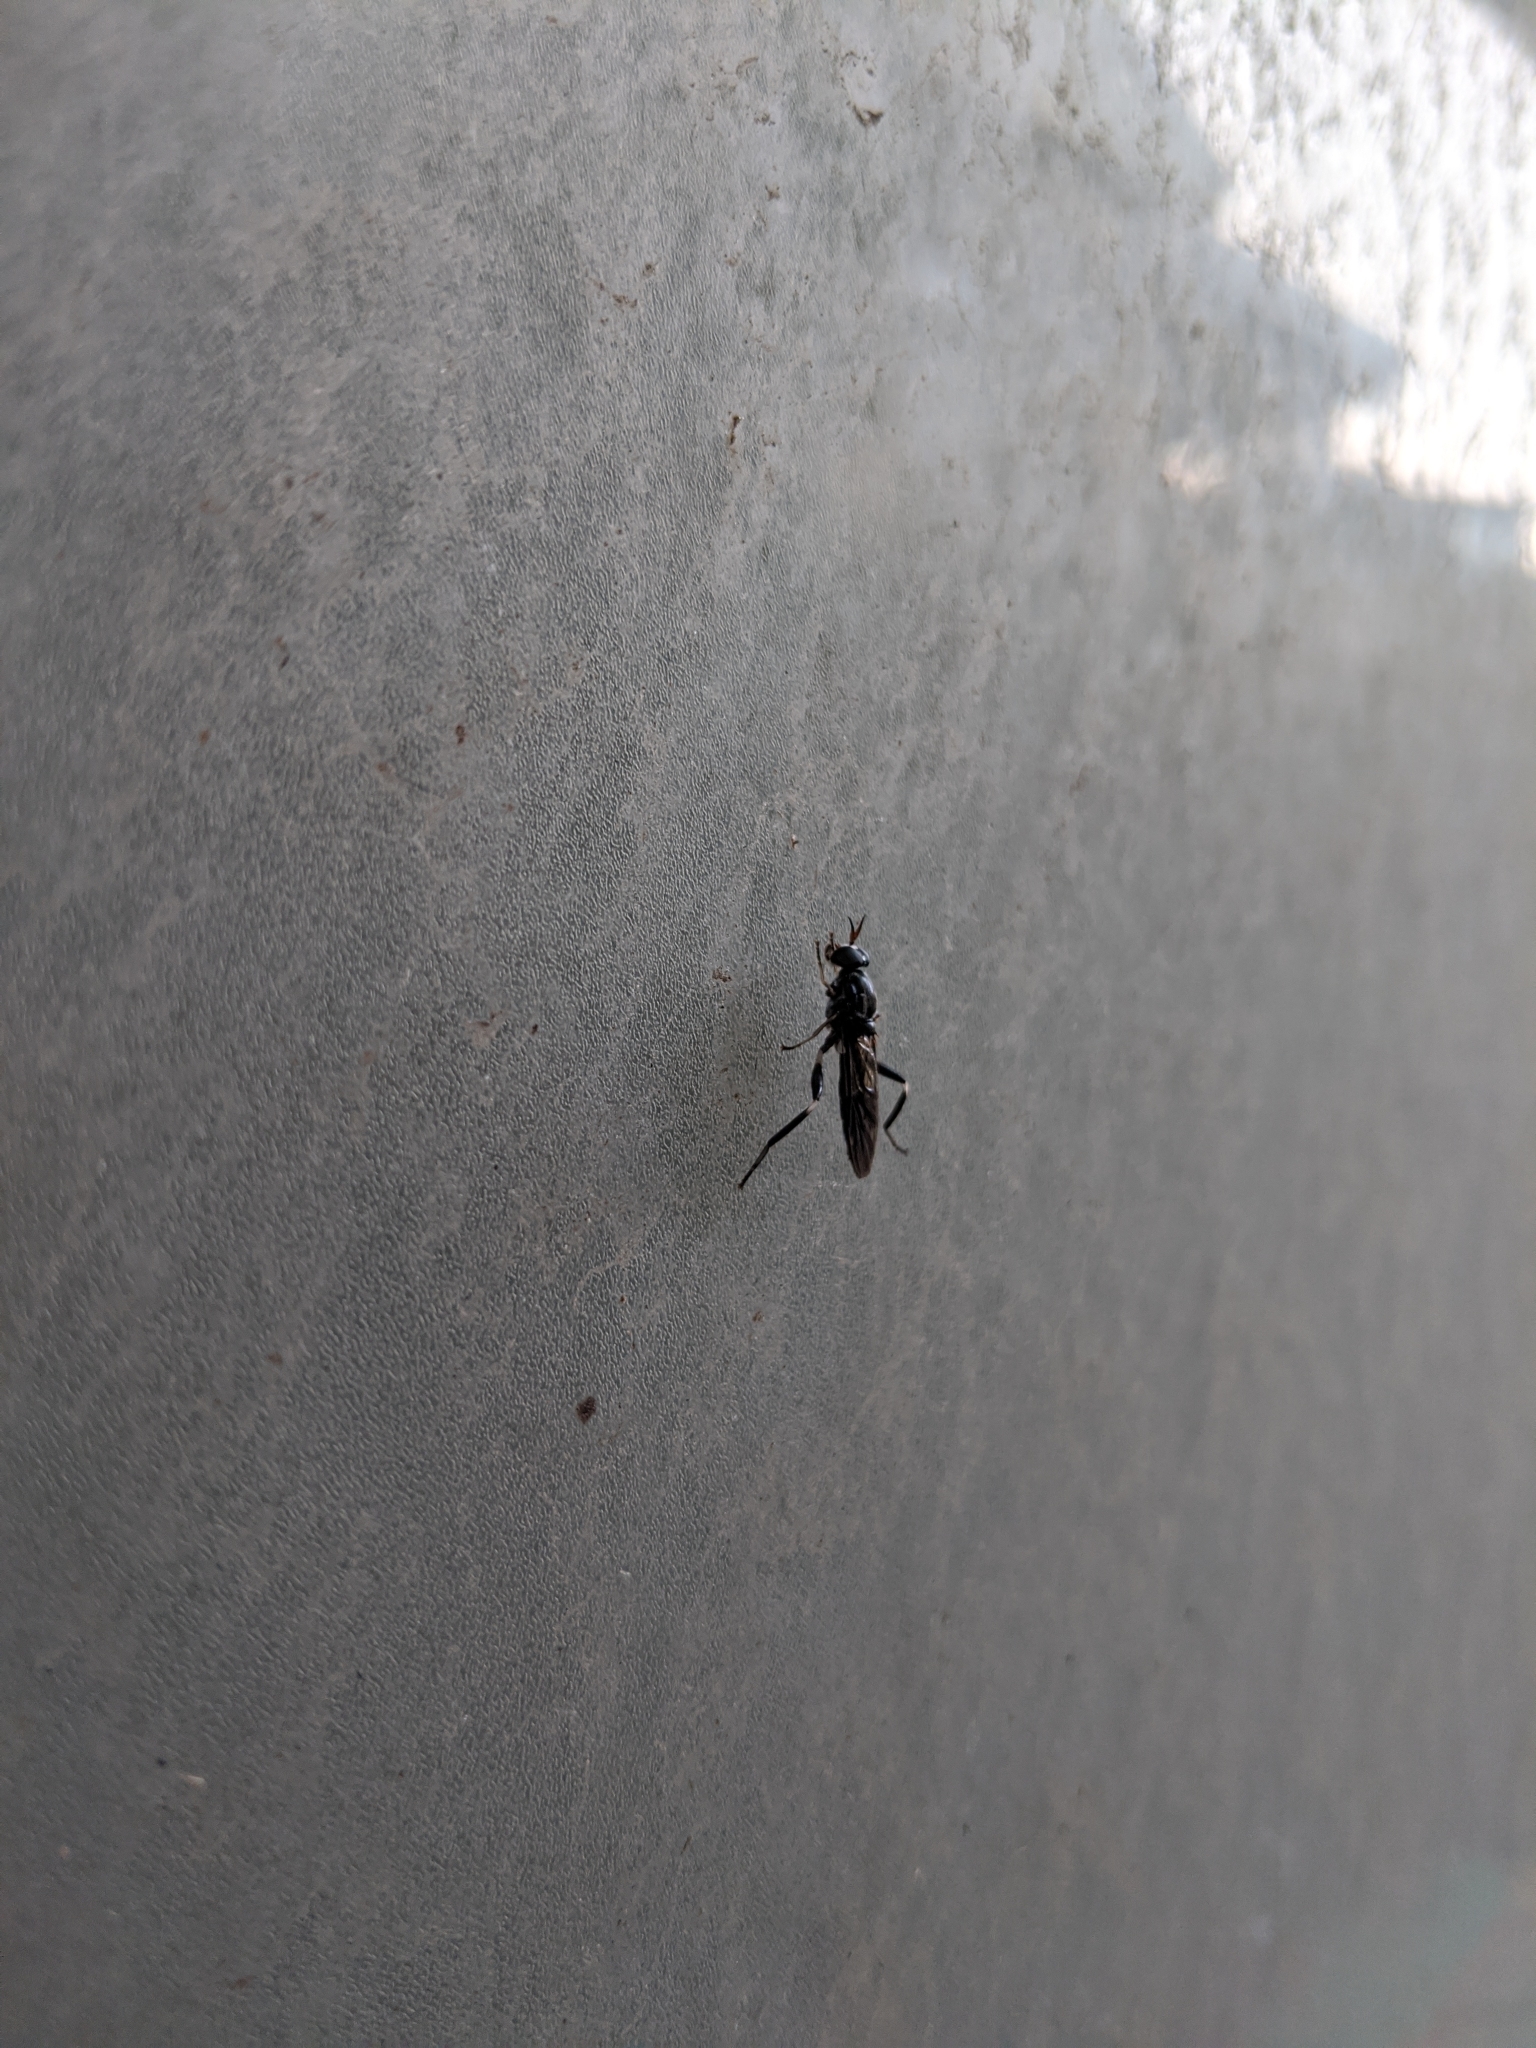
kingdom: Animalia
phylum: Arthropoda
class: Insecta
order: Diptera
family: Stratiomyidae
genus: Exaireta
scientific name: Exaireta spinigera
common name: Blue soldier fly
